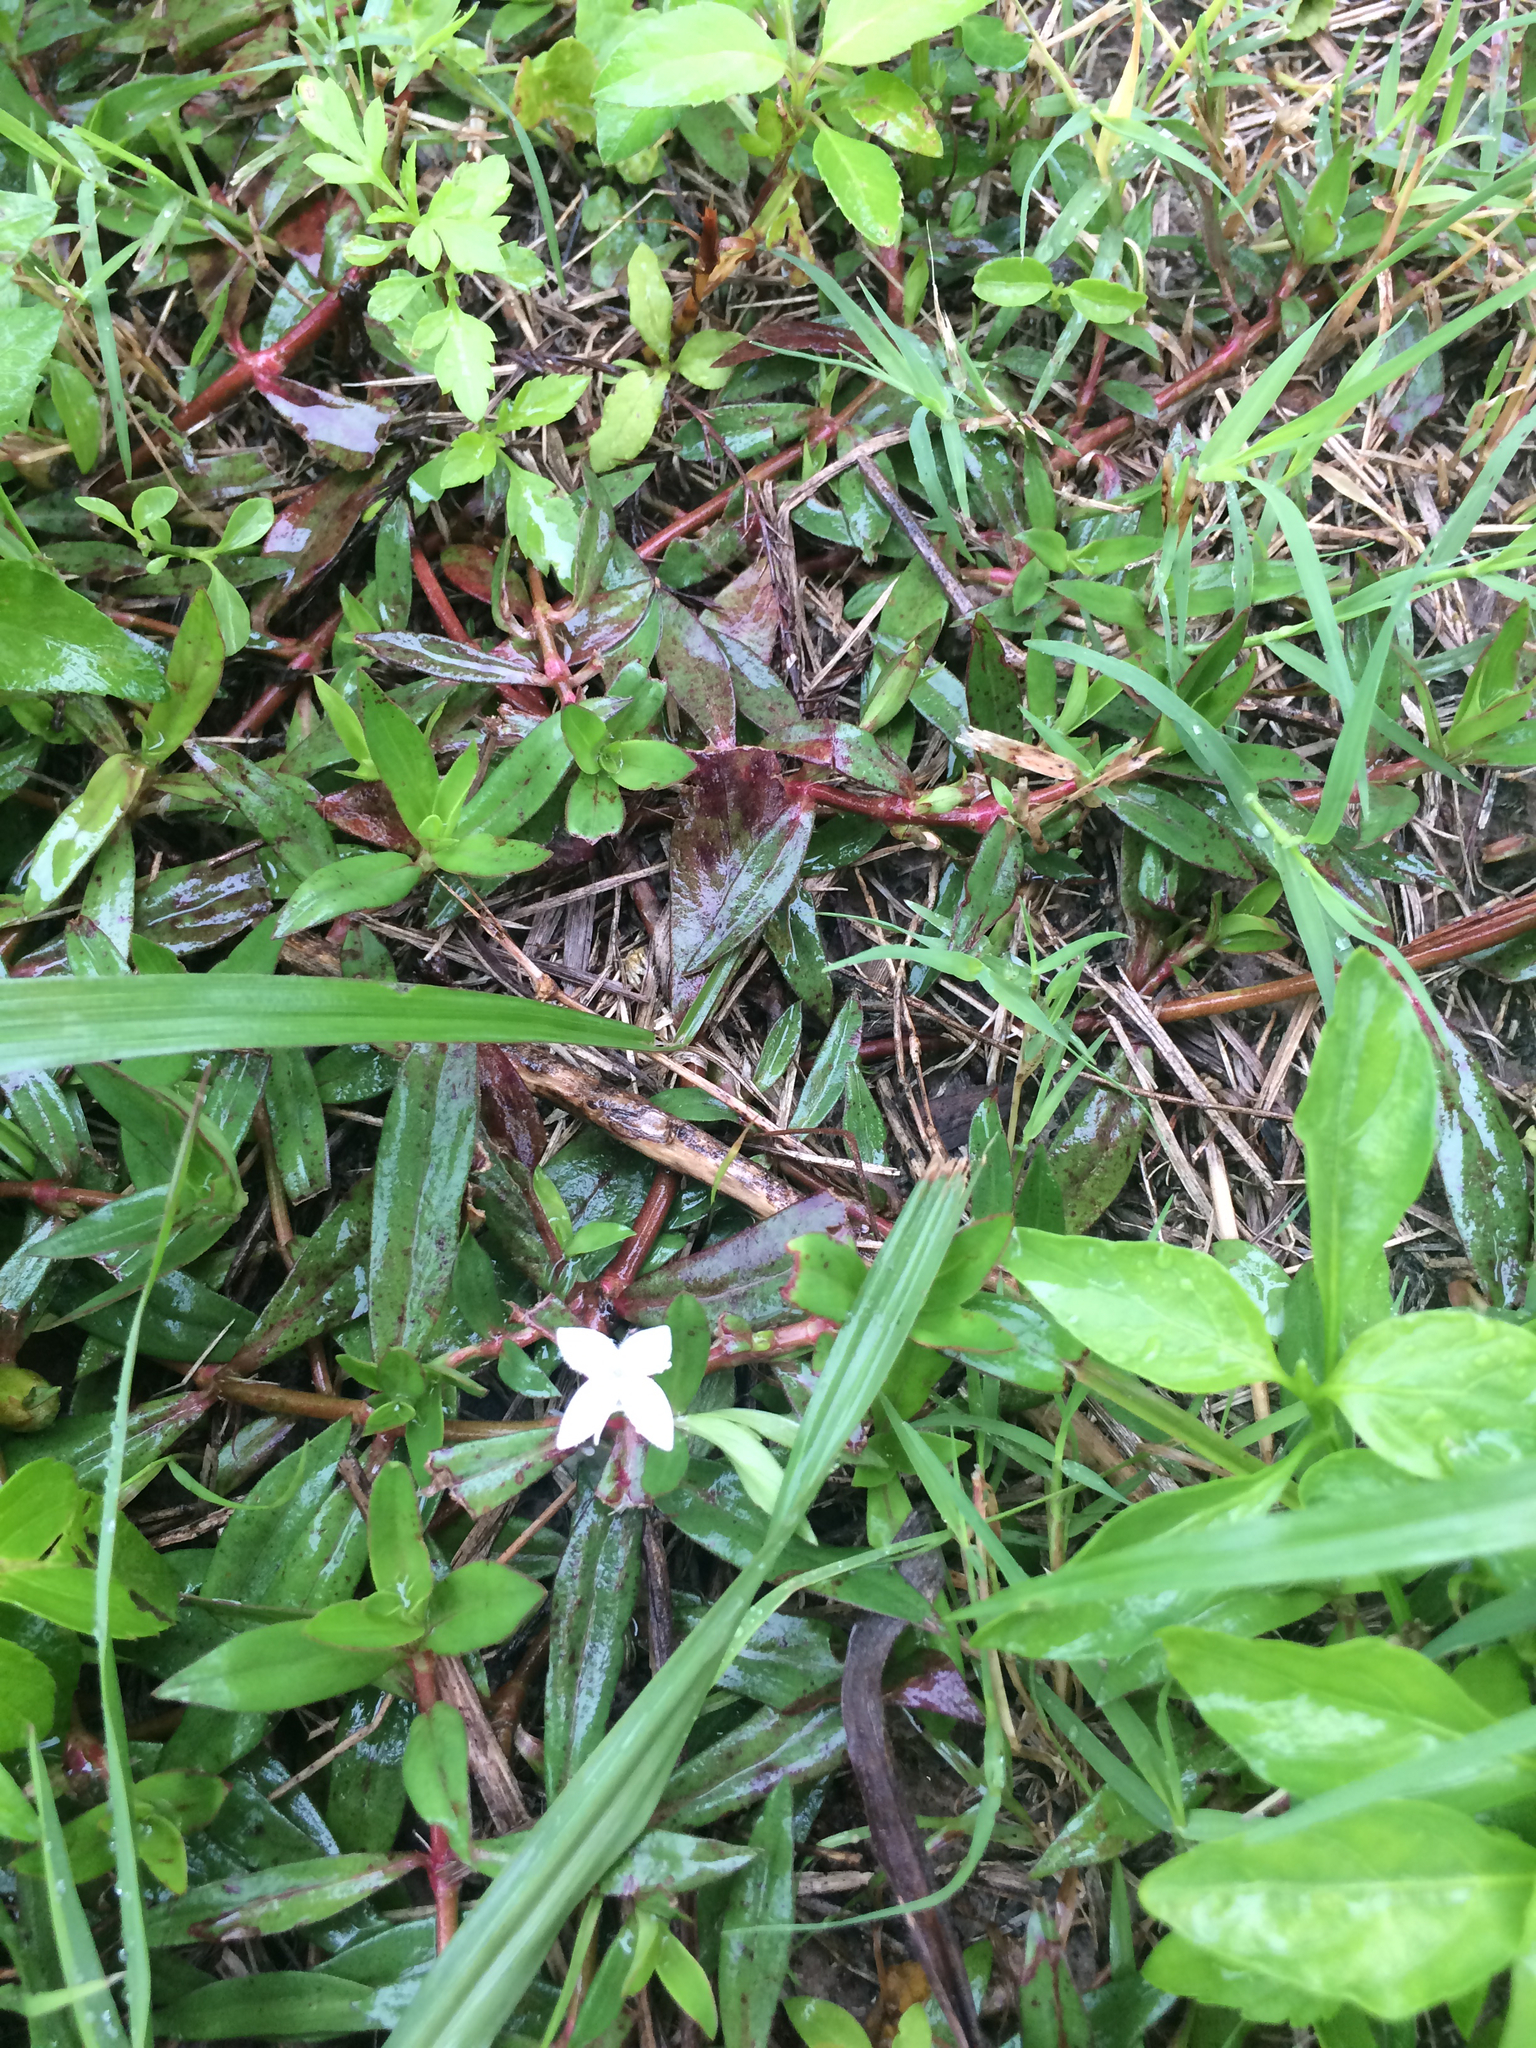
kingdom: Plantae
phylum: Tracheophyta
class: Magnoliopsida
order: Gentianales
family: Rubiaceae
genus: Diodia
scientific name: Diodia virginiana
